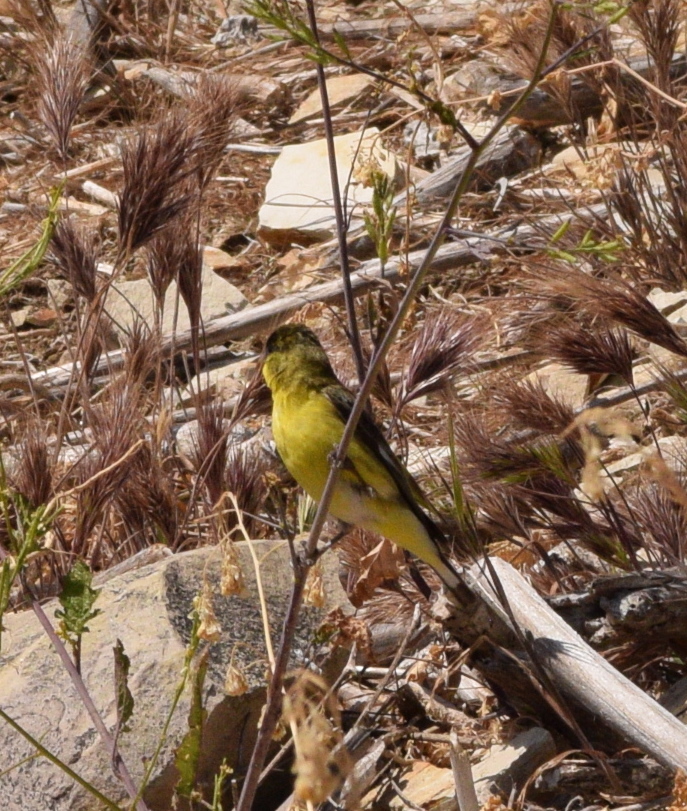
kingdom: Animalia
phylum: Chordata
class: Aves
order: Passeriformes
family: Fringillidae
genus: Spinus
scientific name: Spinus psaltria
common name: Lesser goldfinch
